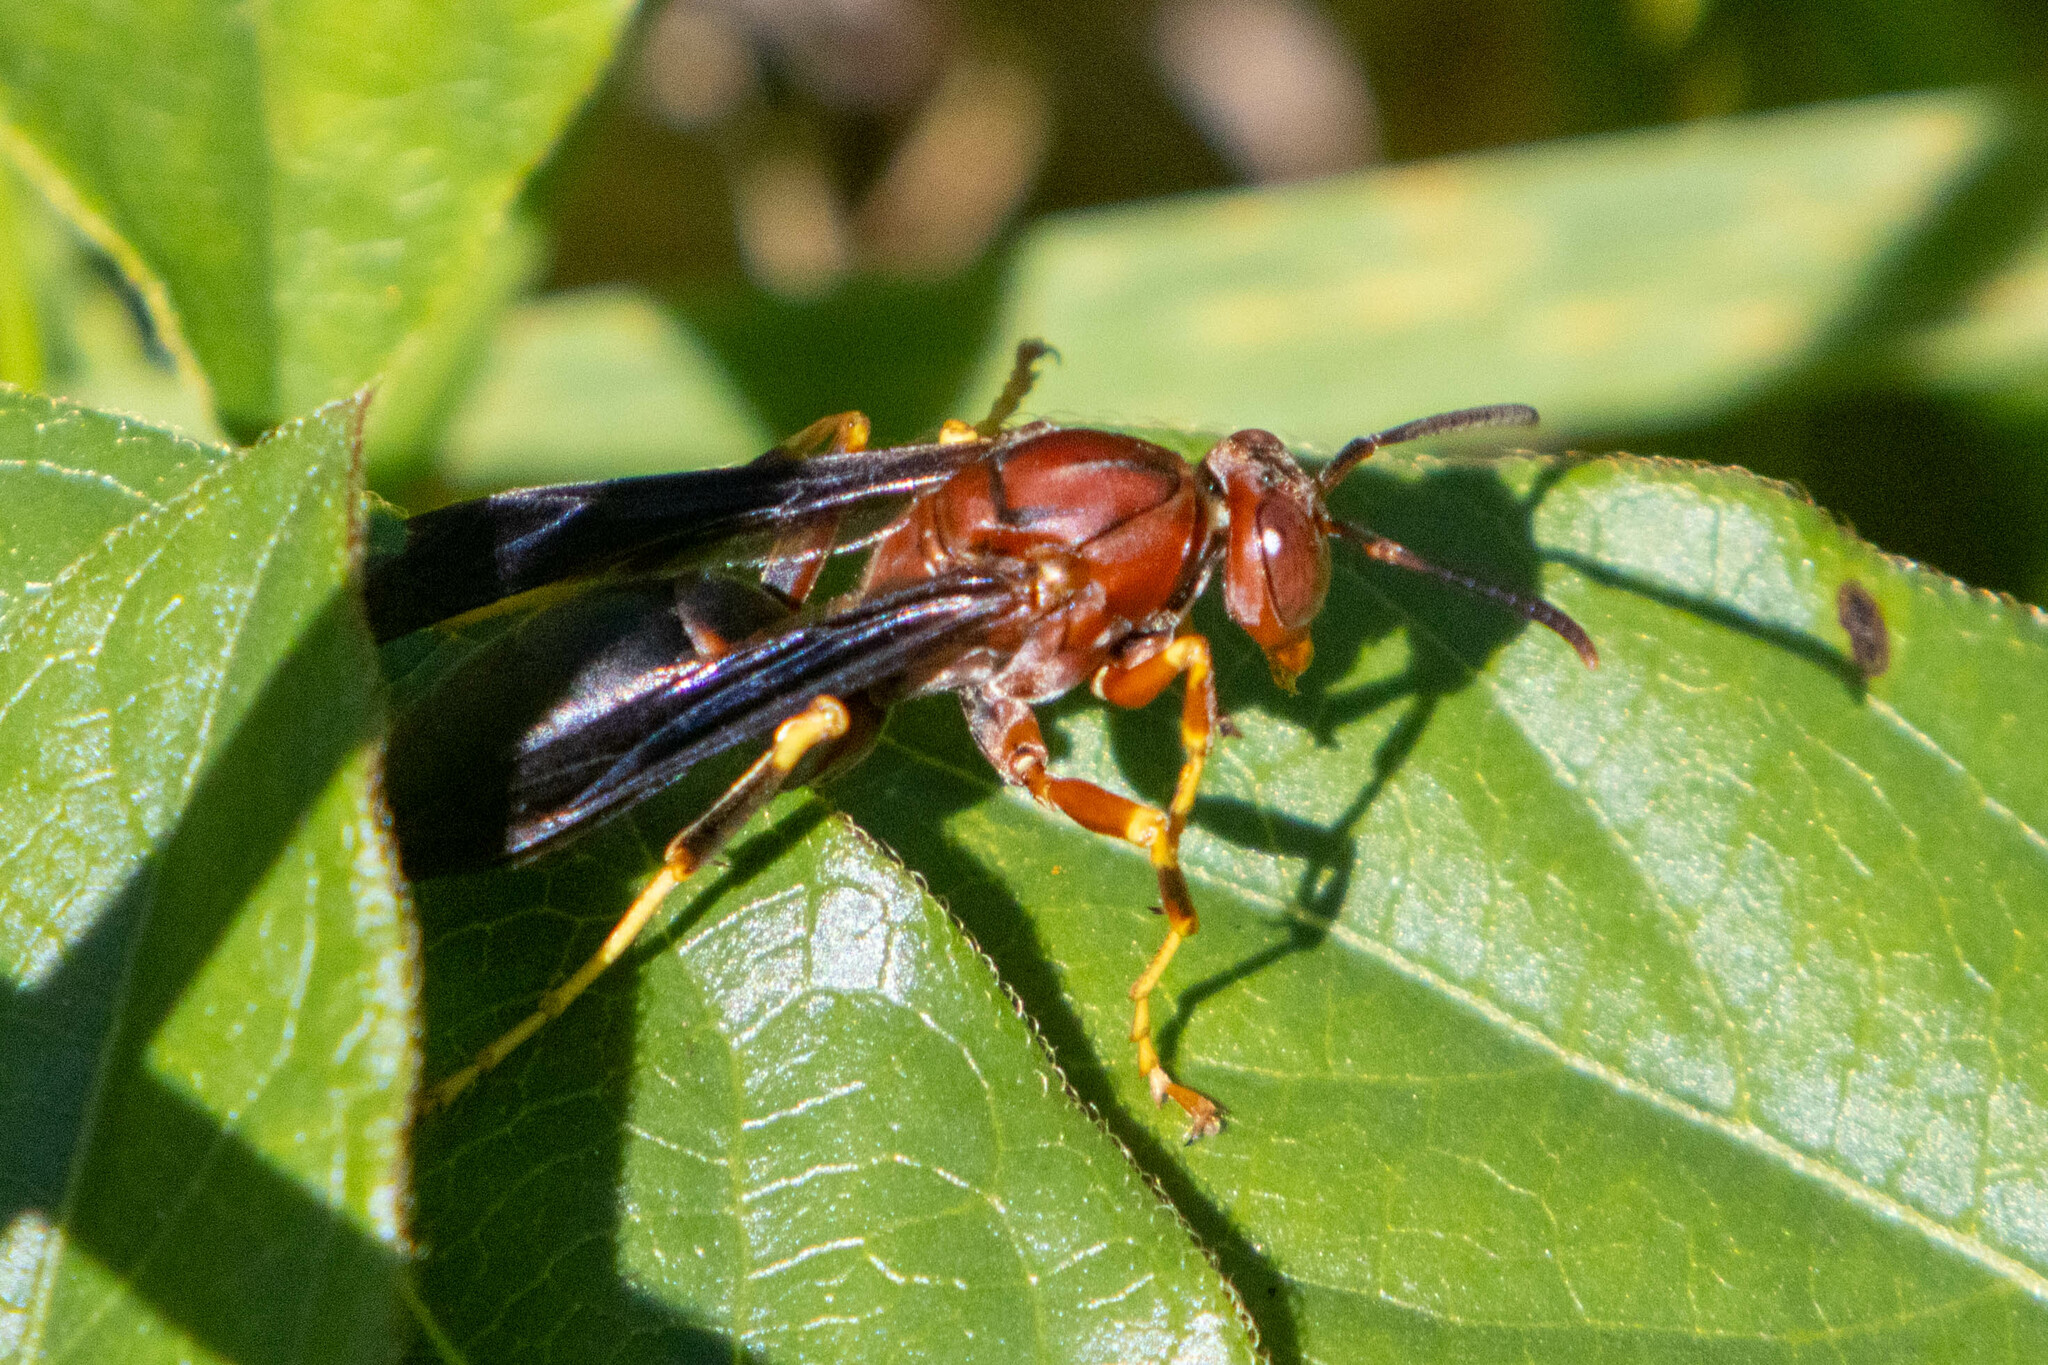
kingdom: Animalia
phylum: Arthropoda
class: Insecta
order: Hymenoptera
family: Eumenidae
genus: Polistes
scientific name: Polistes metricus
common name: Metric paper wasp
